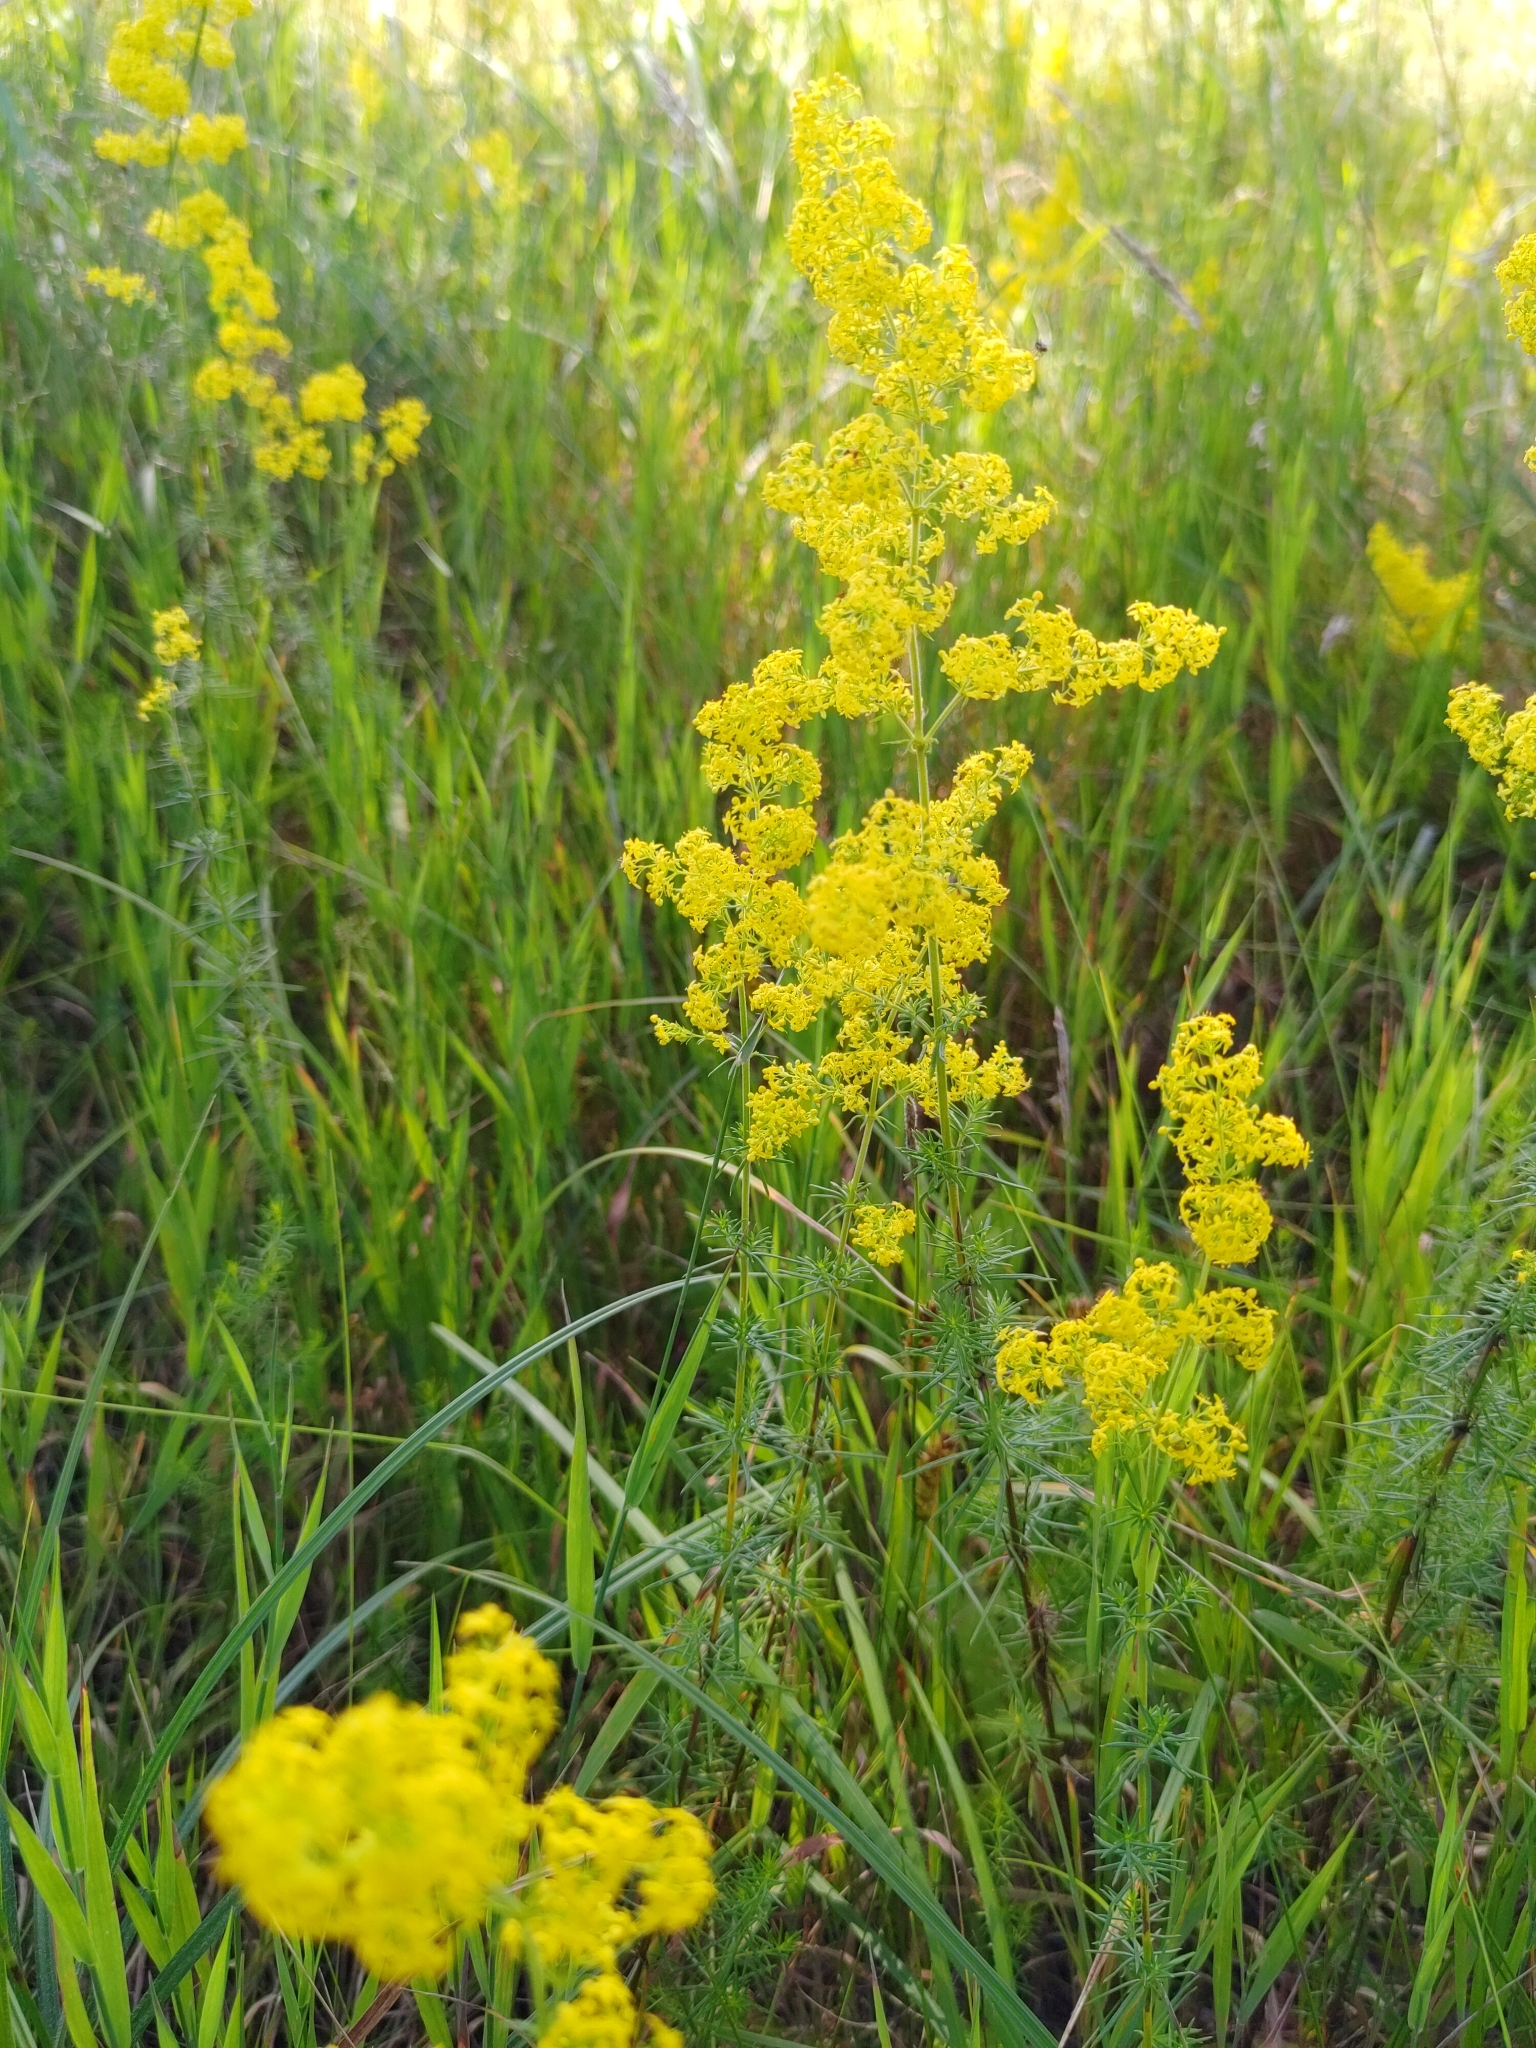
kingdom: Plantae
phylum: Tracheophyta
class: Magnoliopsida
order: Gentianales
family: Rubiaceae
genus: Galium
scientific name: Galium verum
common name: Lady's bedstraw
